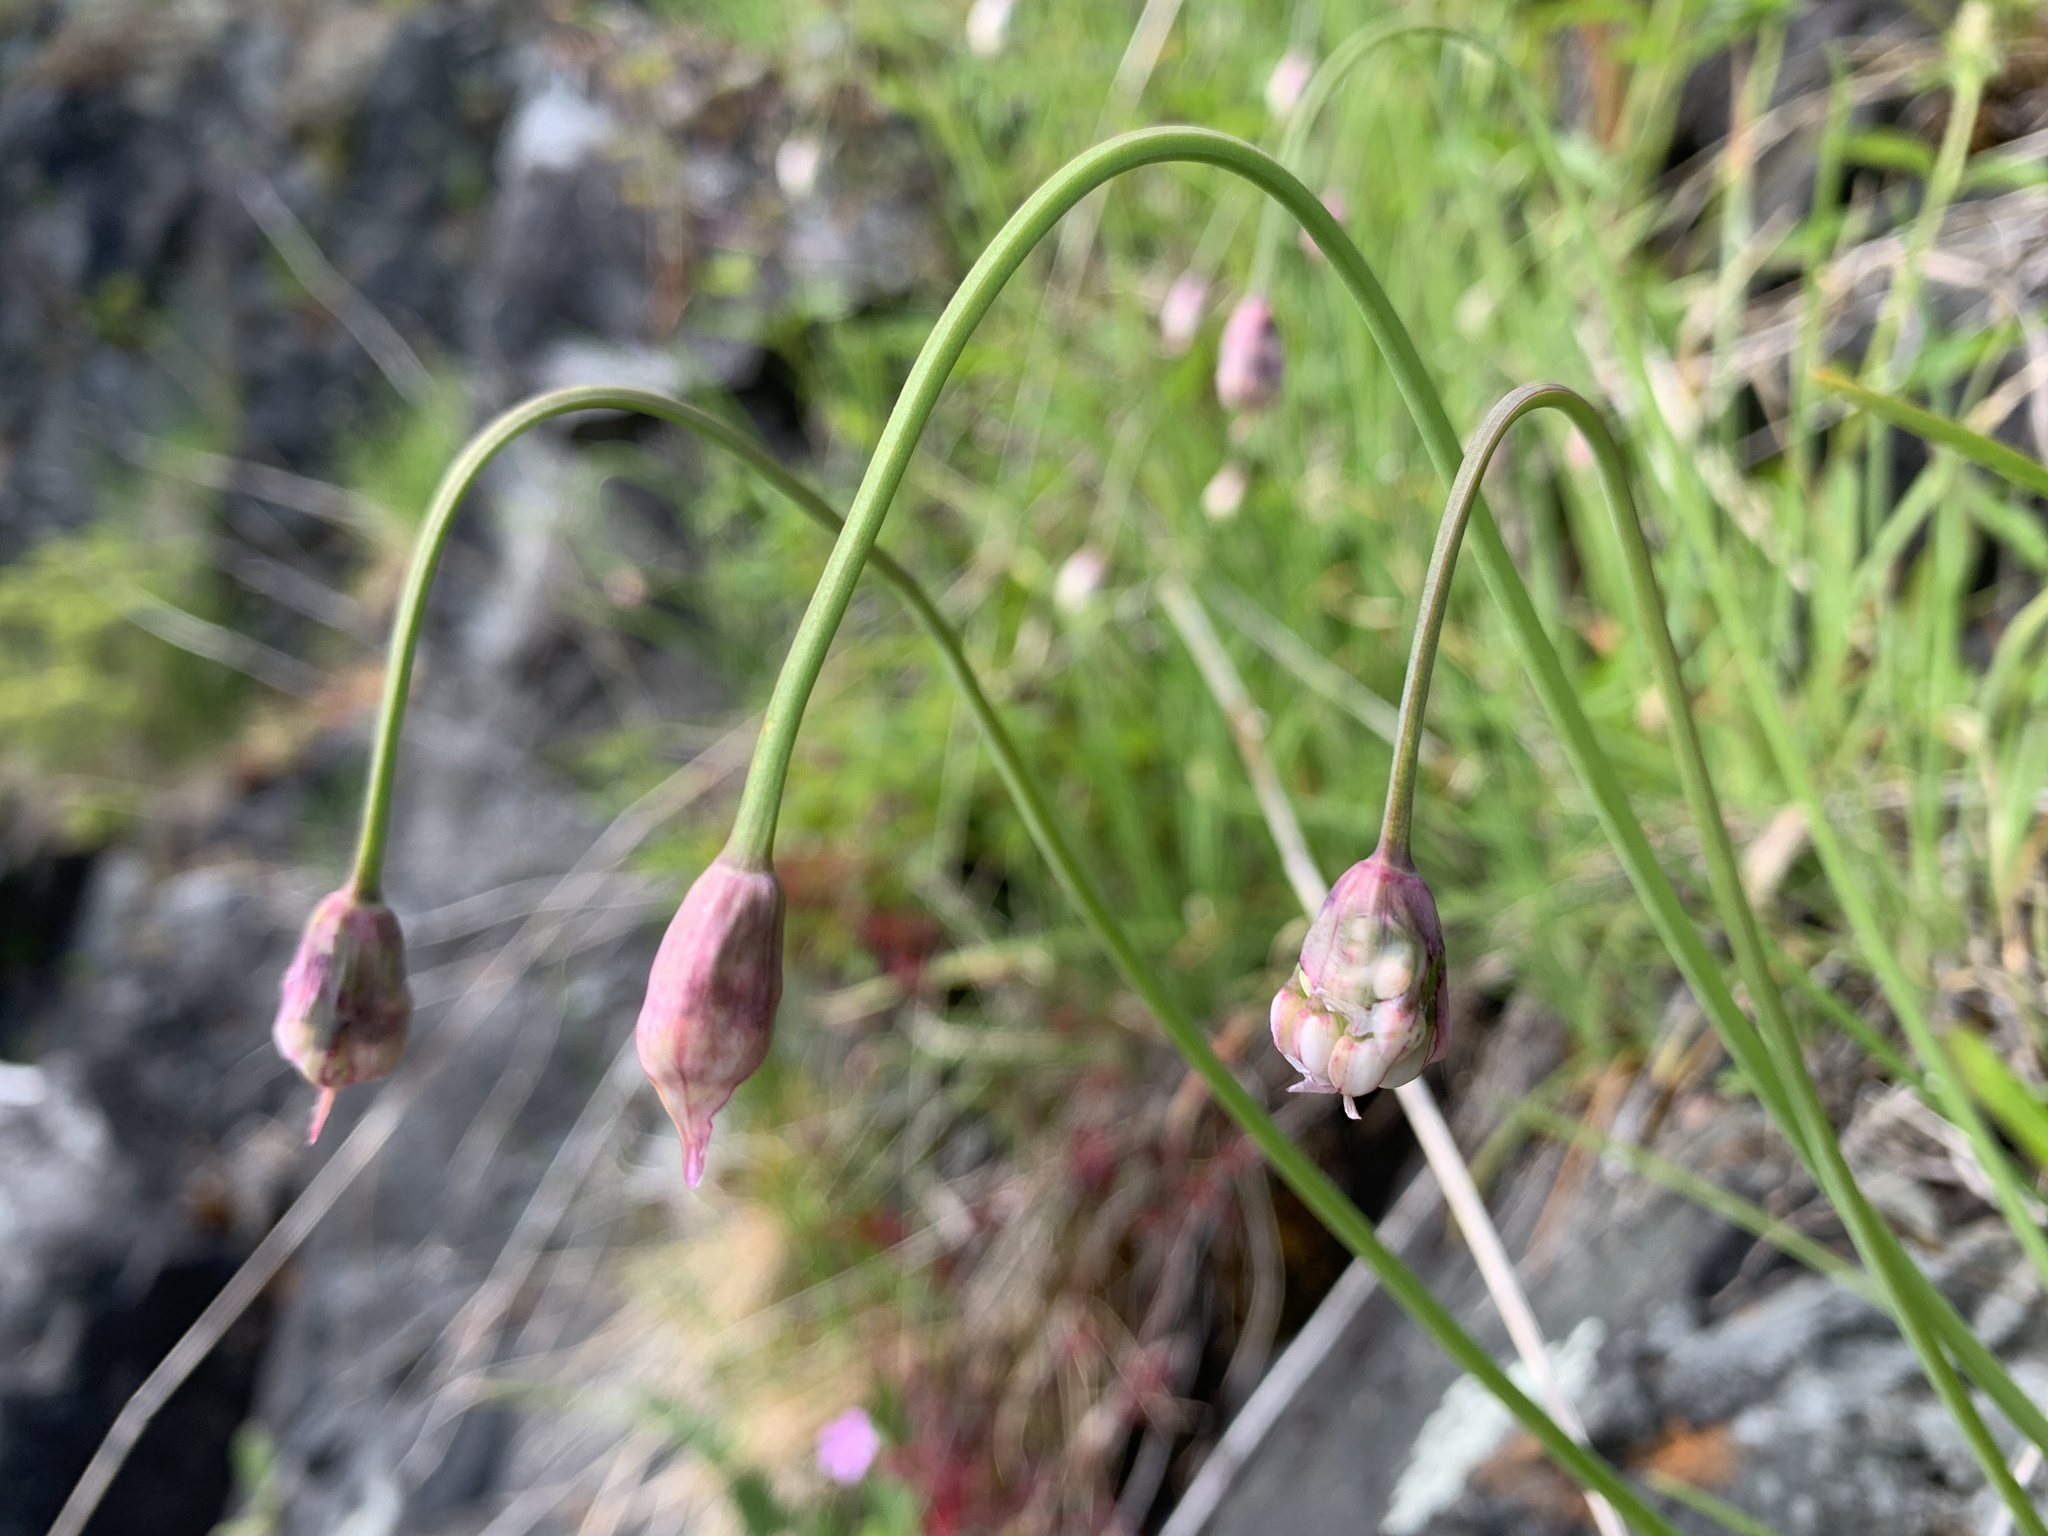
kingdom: Plantae
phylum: Tracheophyta
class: Liliopsida
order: Asparagales
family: Amaryllidaceae
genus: Allium
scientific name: Allium cernuum
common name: Nodding onion
